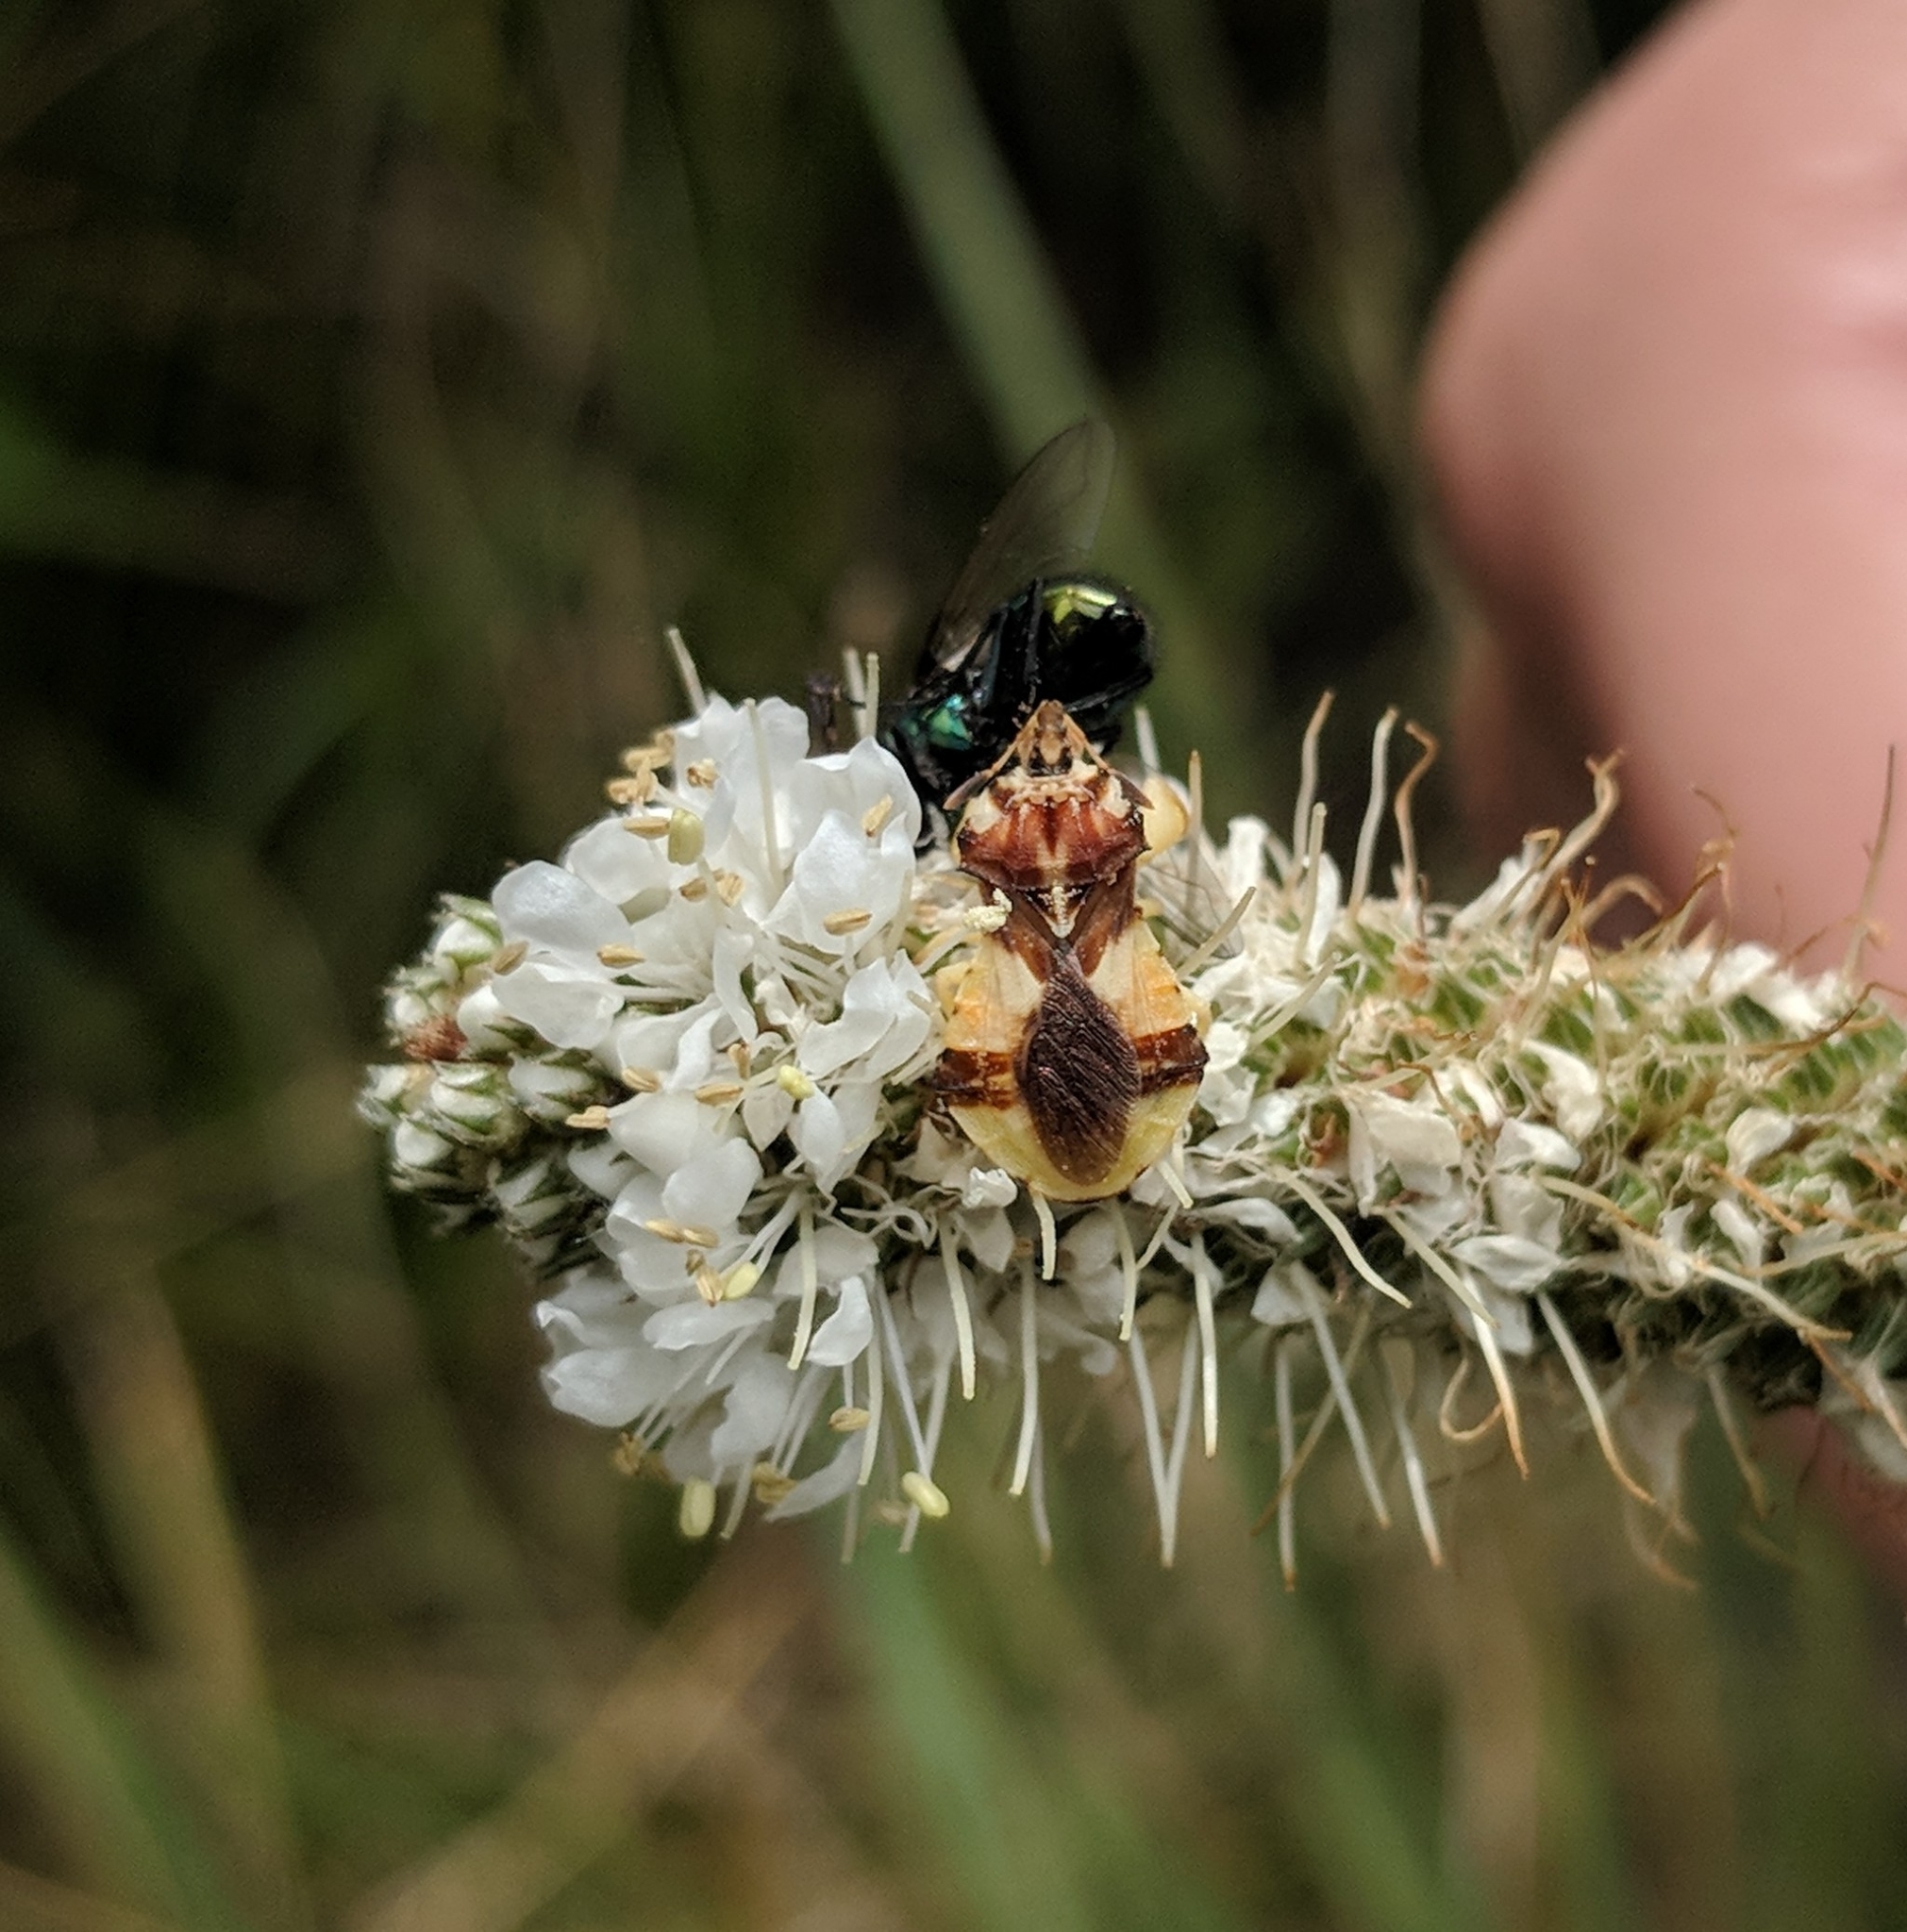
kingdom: Animalia
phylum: Arthropoda
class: Insecta
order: Hemiptera
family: Reduviidae
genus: Phymata
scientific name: Phymata americana
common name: Jagged ambush bug
